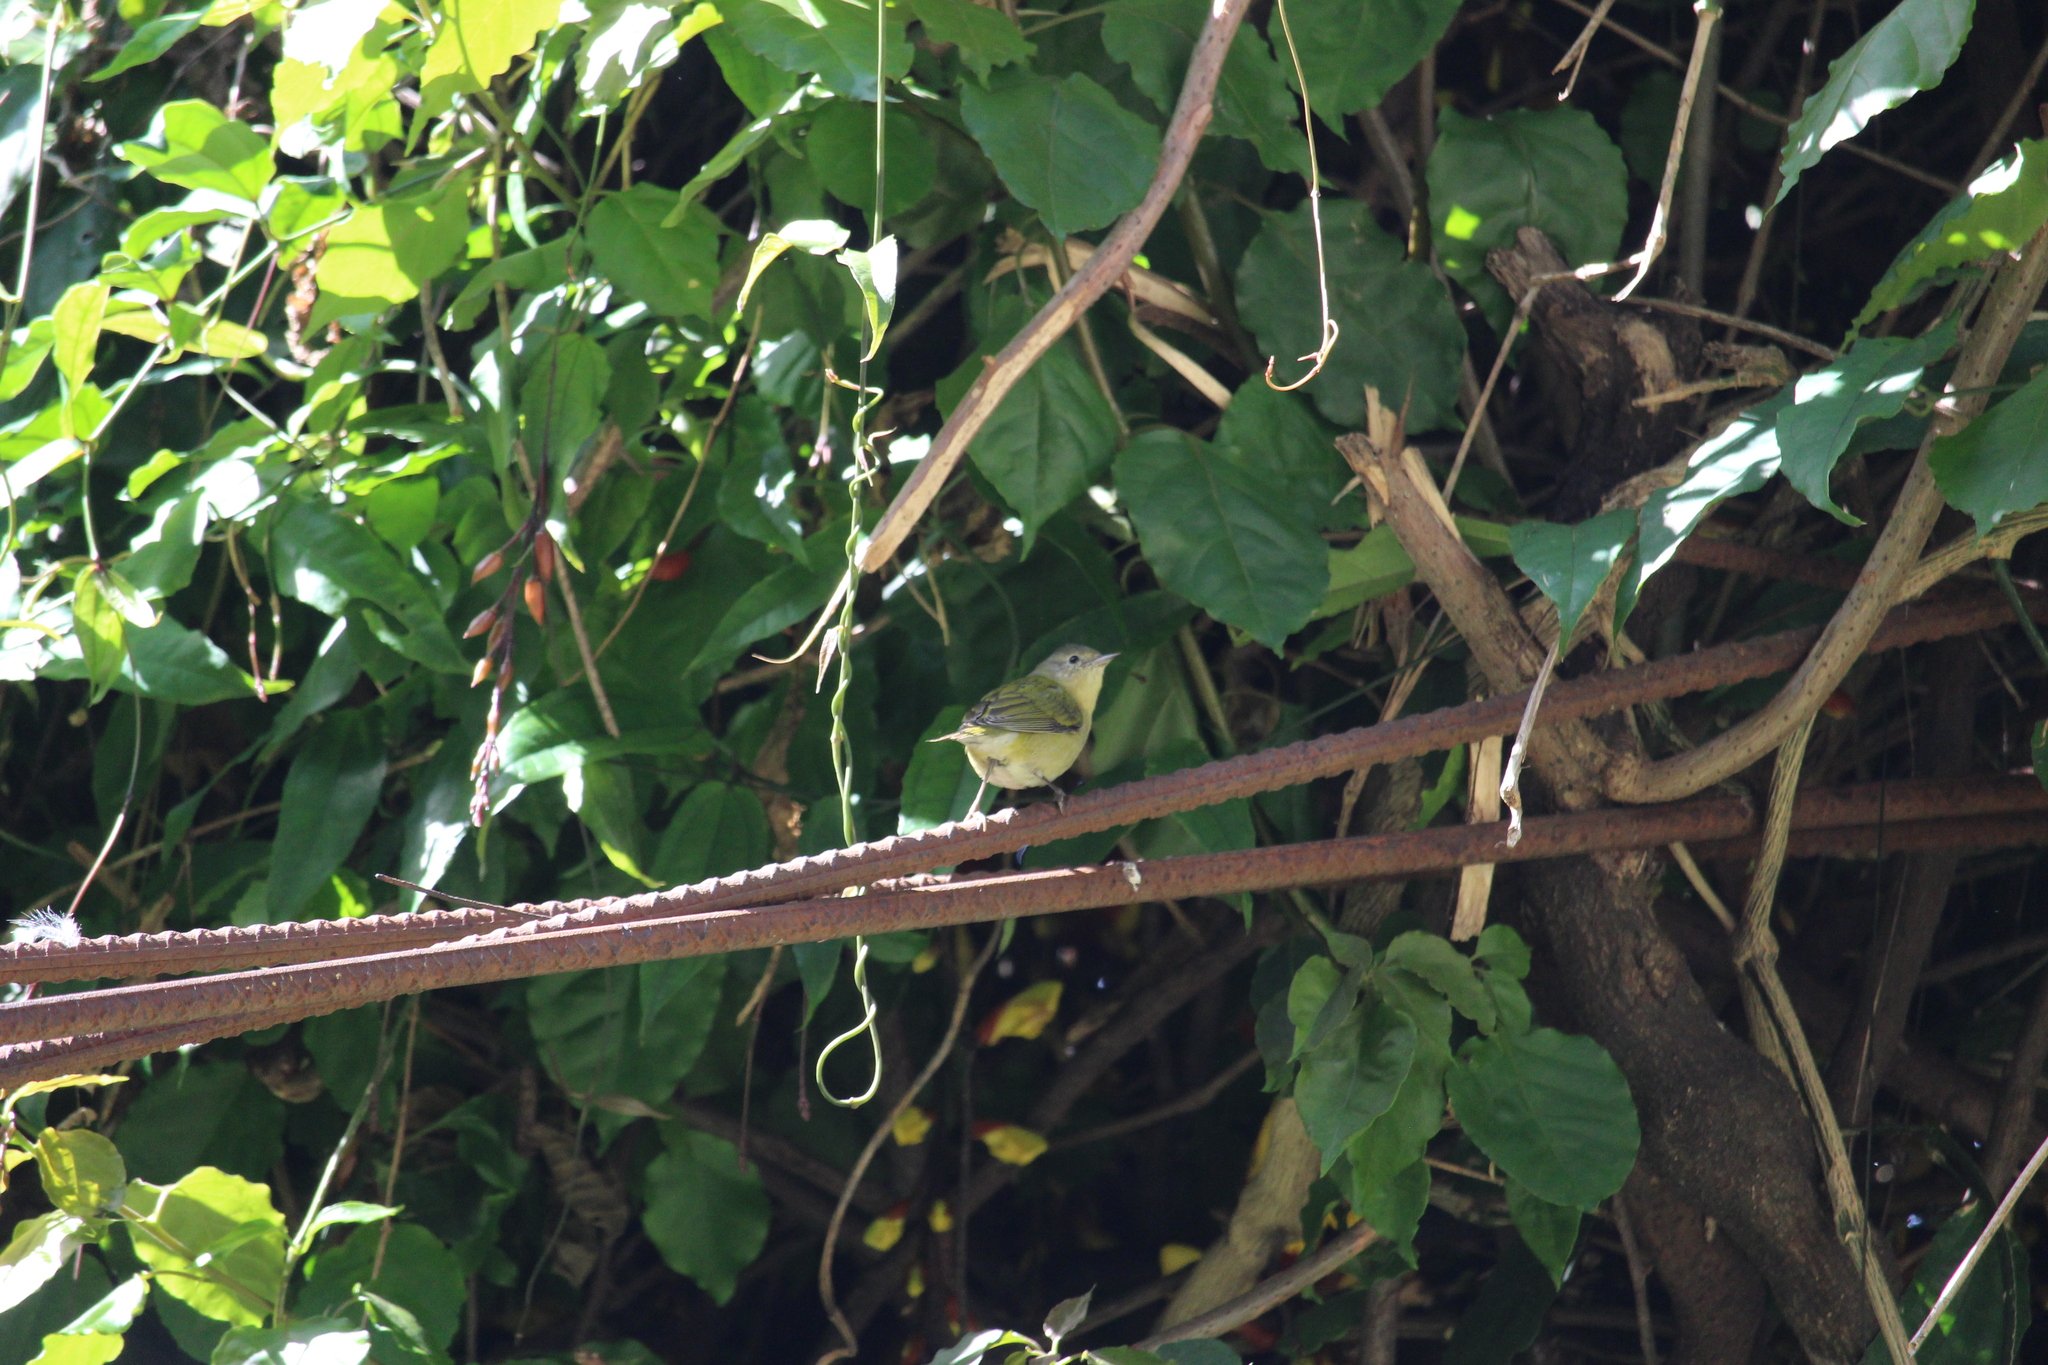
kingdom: Animalia
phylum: Chordata
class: Aves
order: Passeriformes
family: Parulidae
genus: Leiothlypis
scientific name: Leiothlypis peregrina
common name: Tennessee warbler
